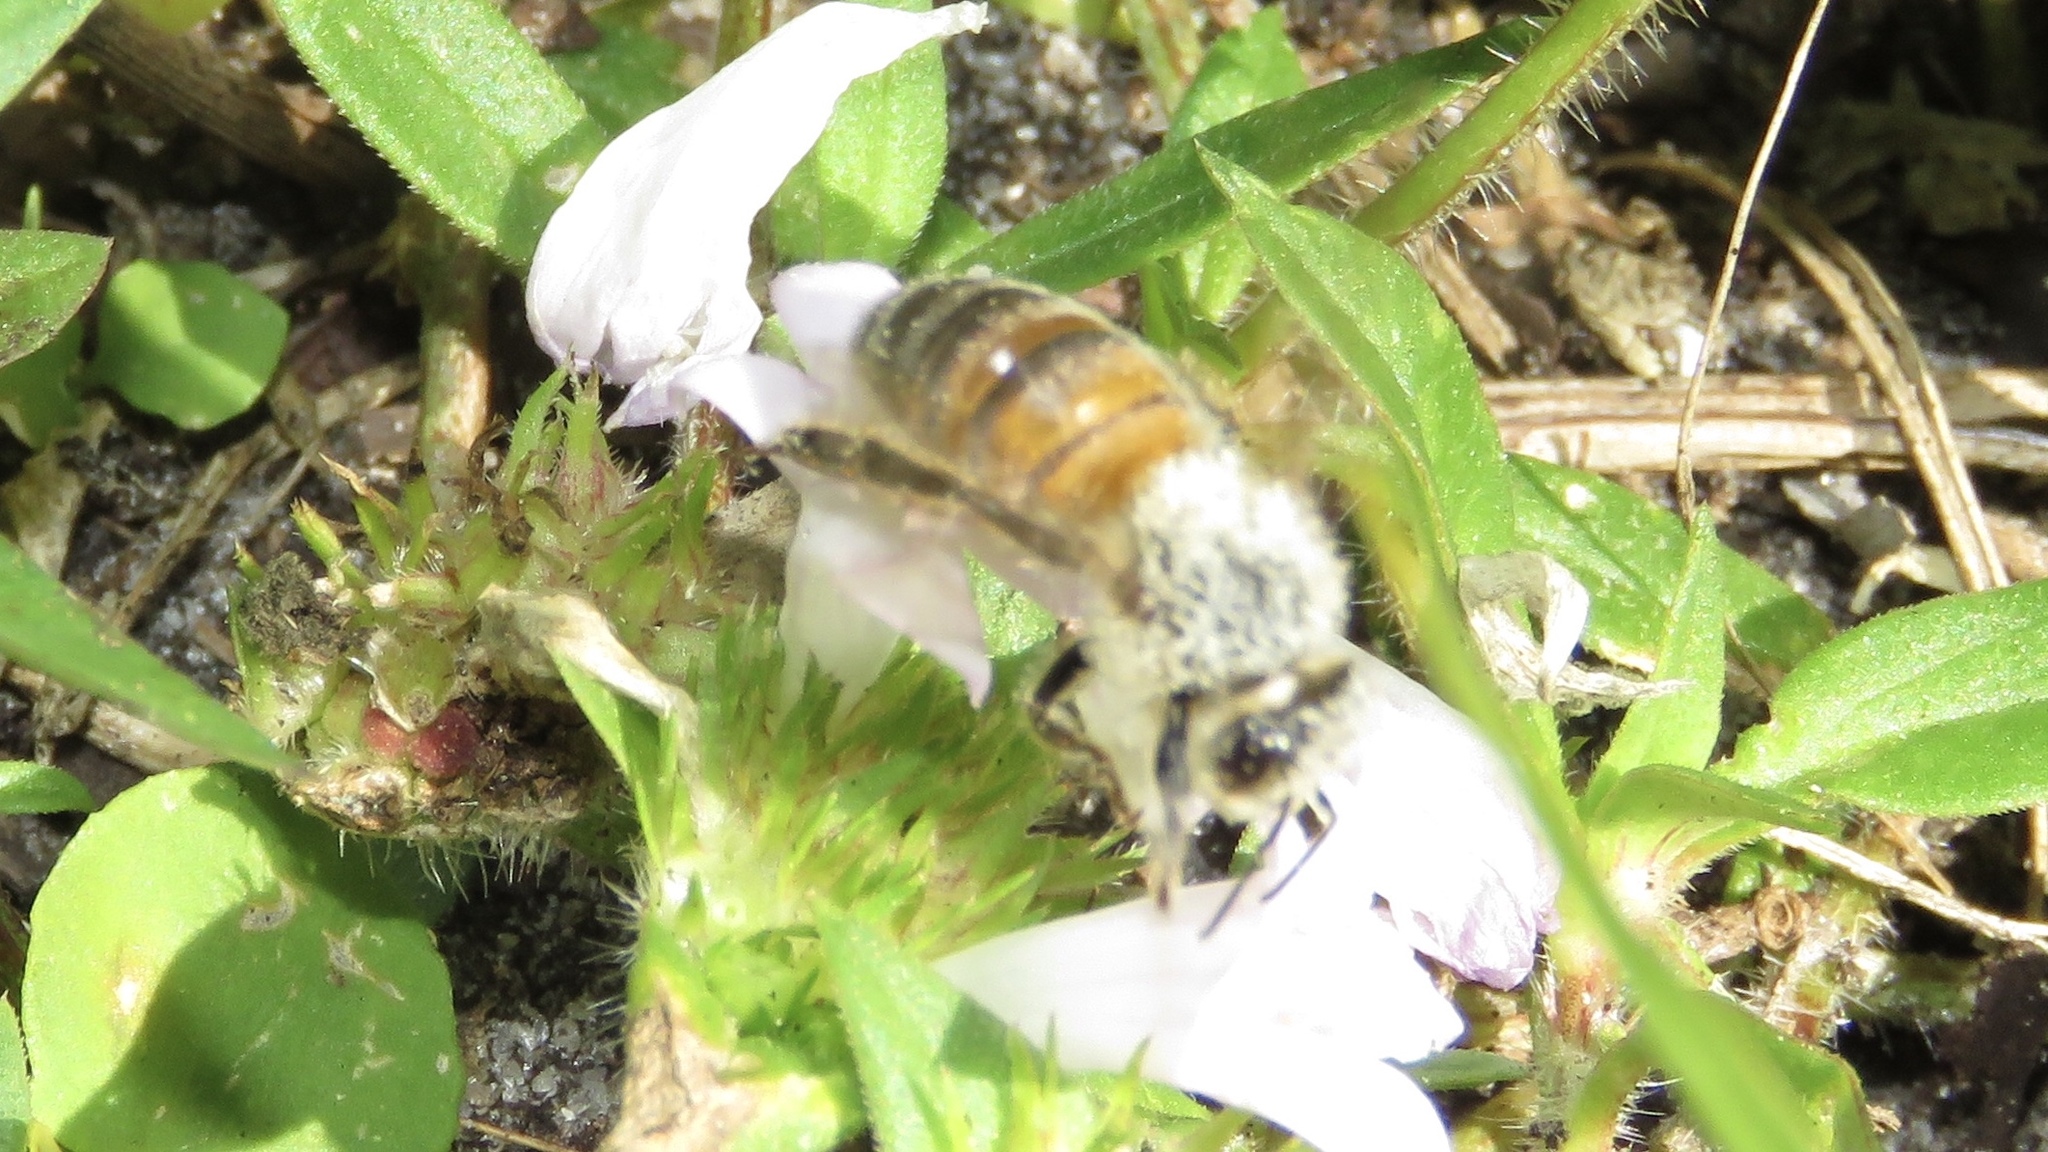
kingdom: Animalia
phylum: Arthropoda
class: Insecta
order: Hymenoptera
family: Apidae
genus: Apis
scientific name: Apis mellifera
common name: Honey bee
